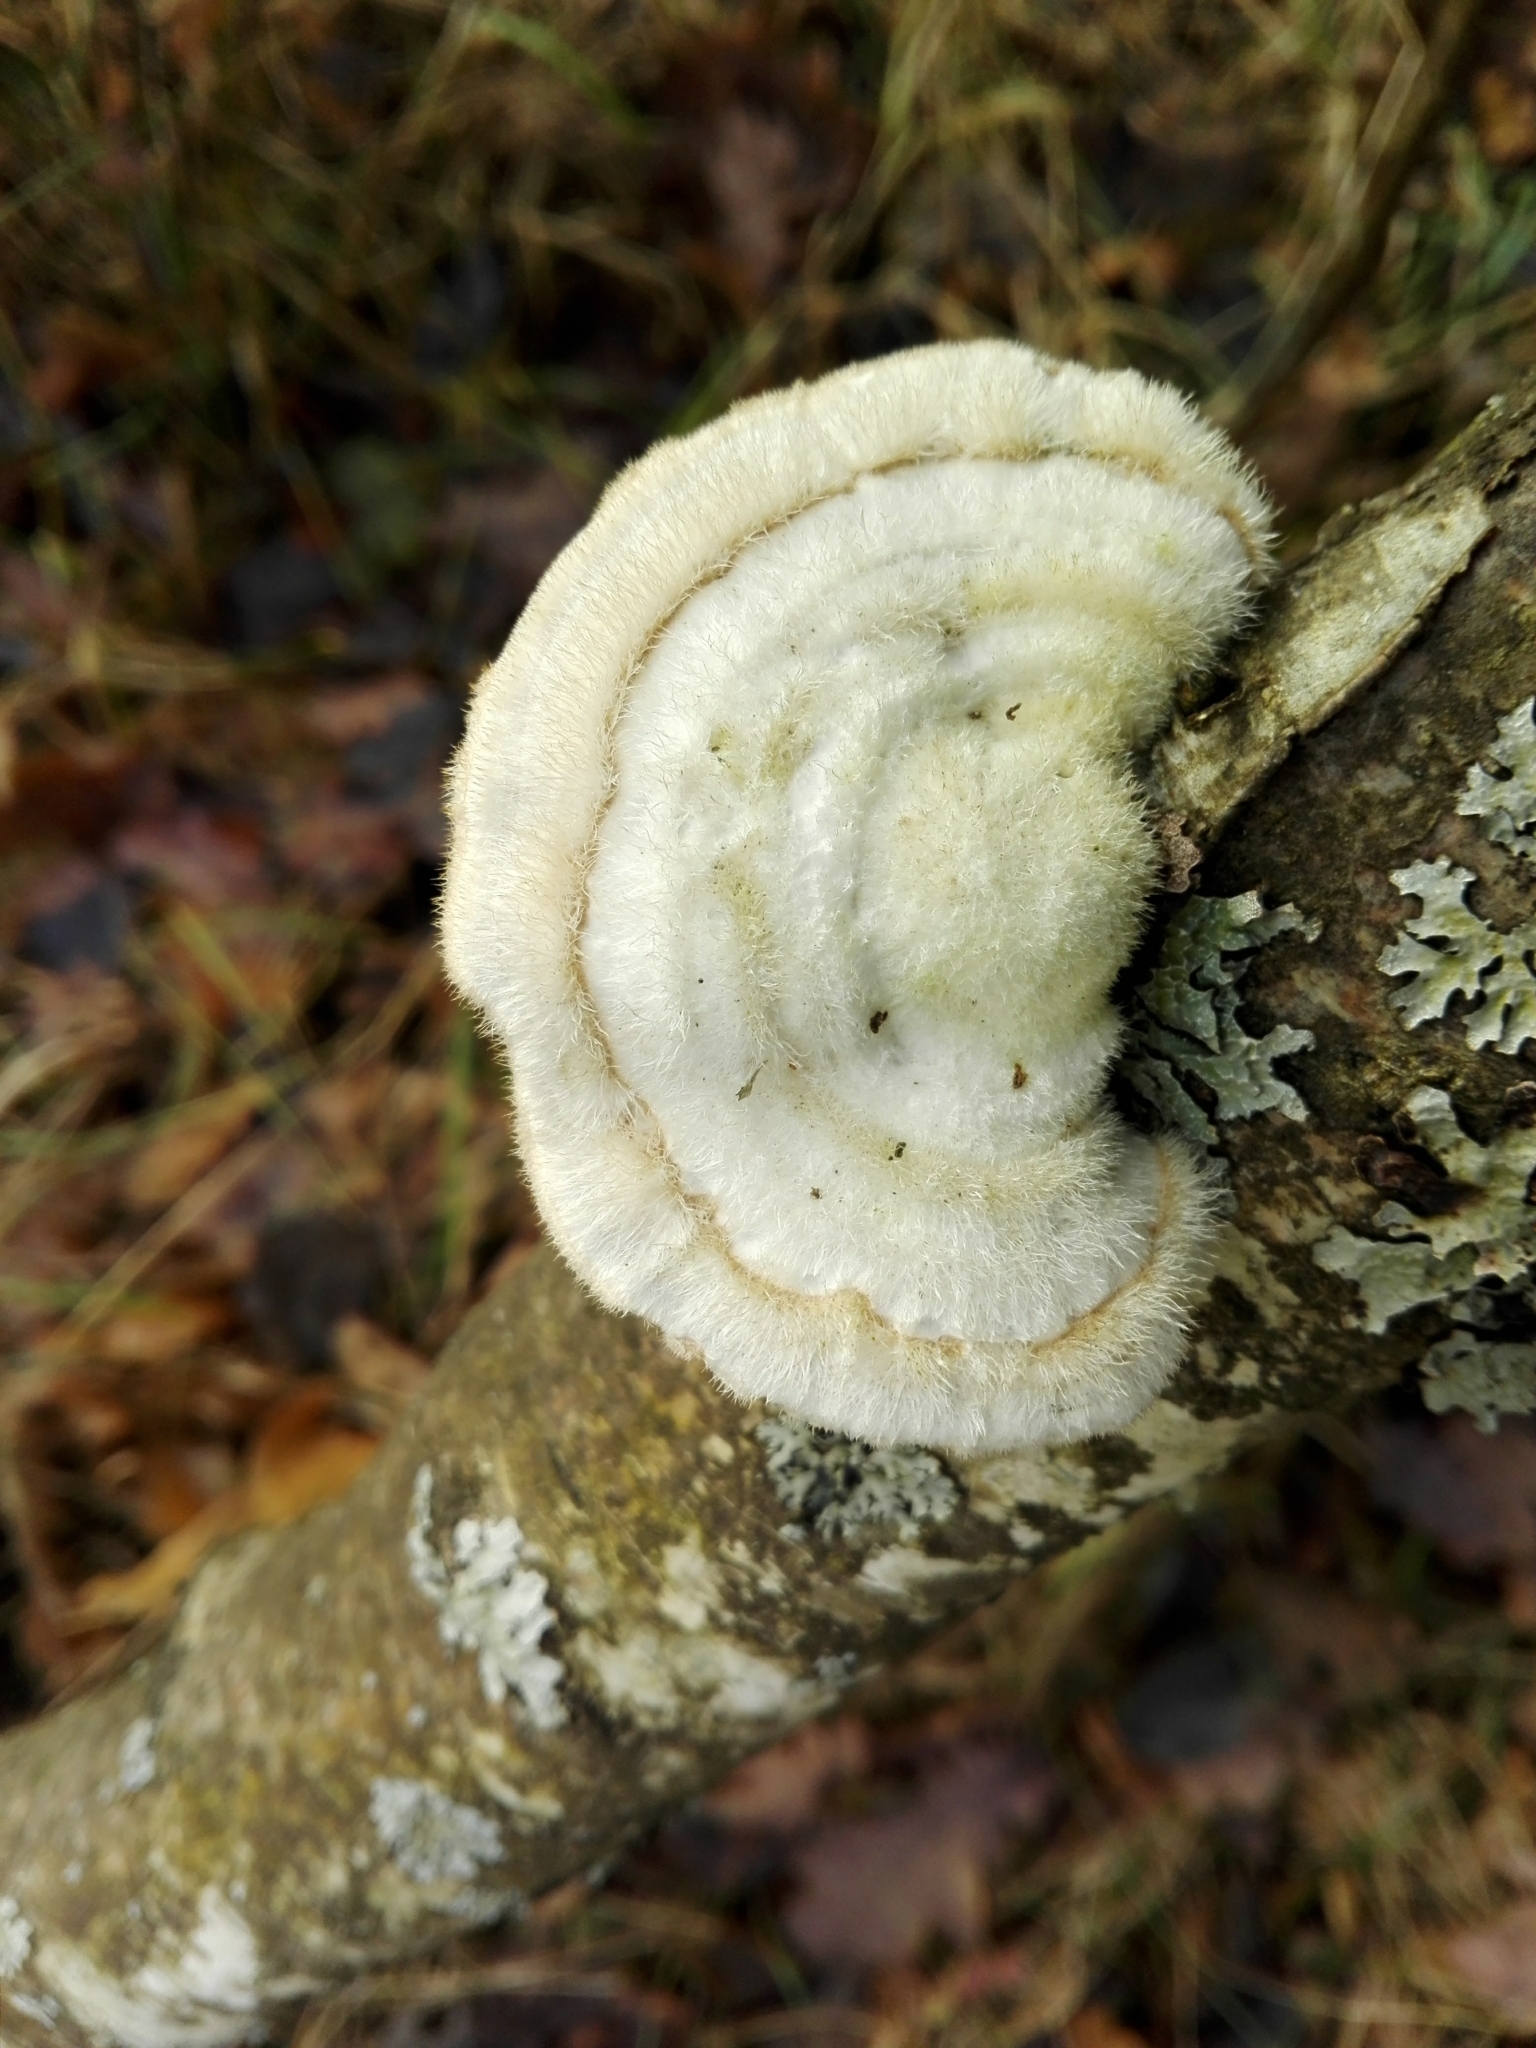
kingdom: Fungi
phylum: Basidiomycota
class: Agaricomycetes
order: Polyporales
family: Polyporaceae
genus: Trametes
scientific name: Trametes hirsuta
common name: Hairy bracket
